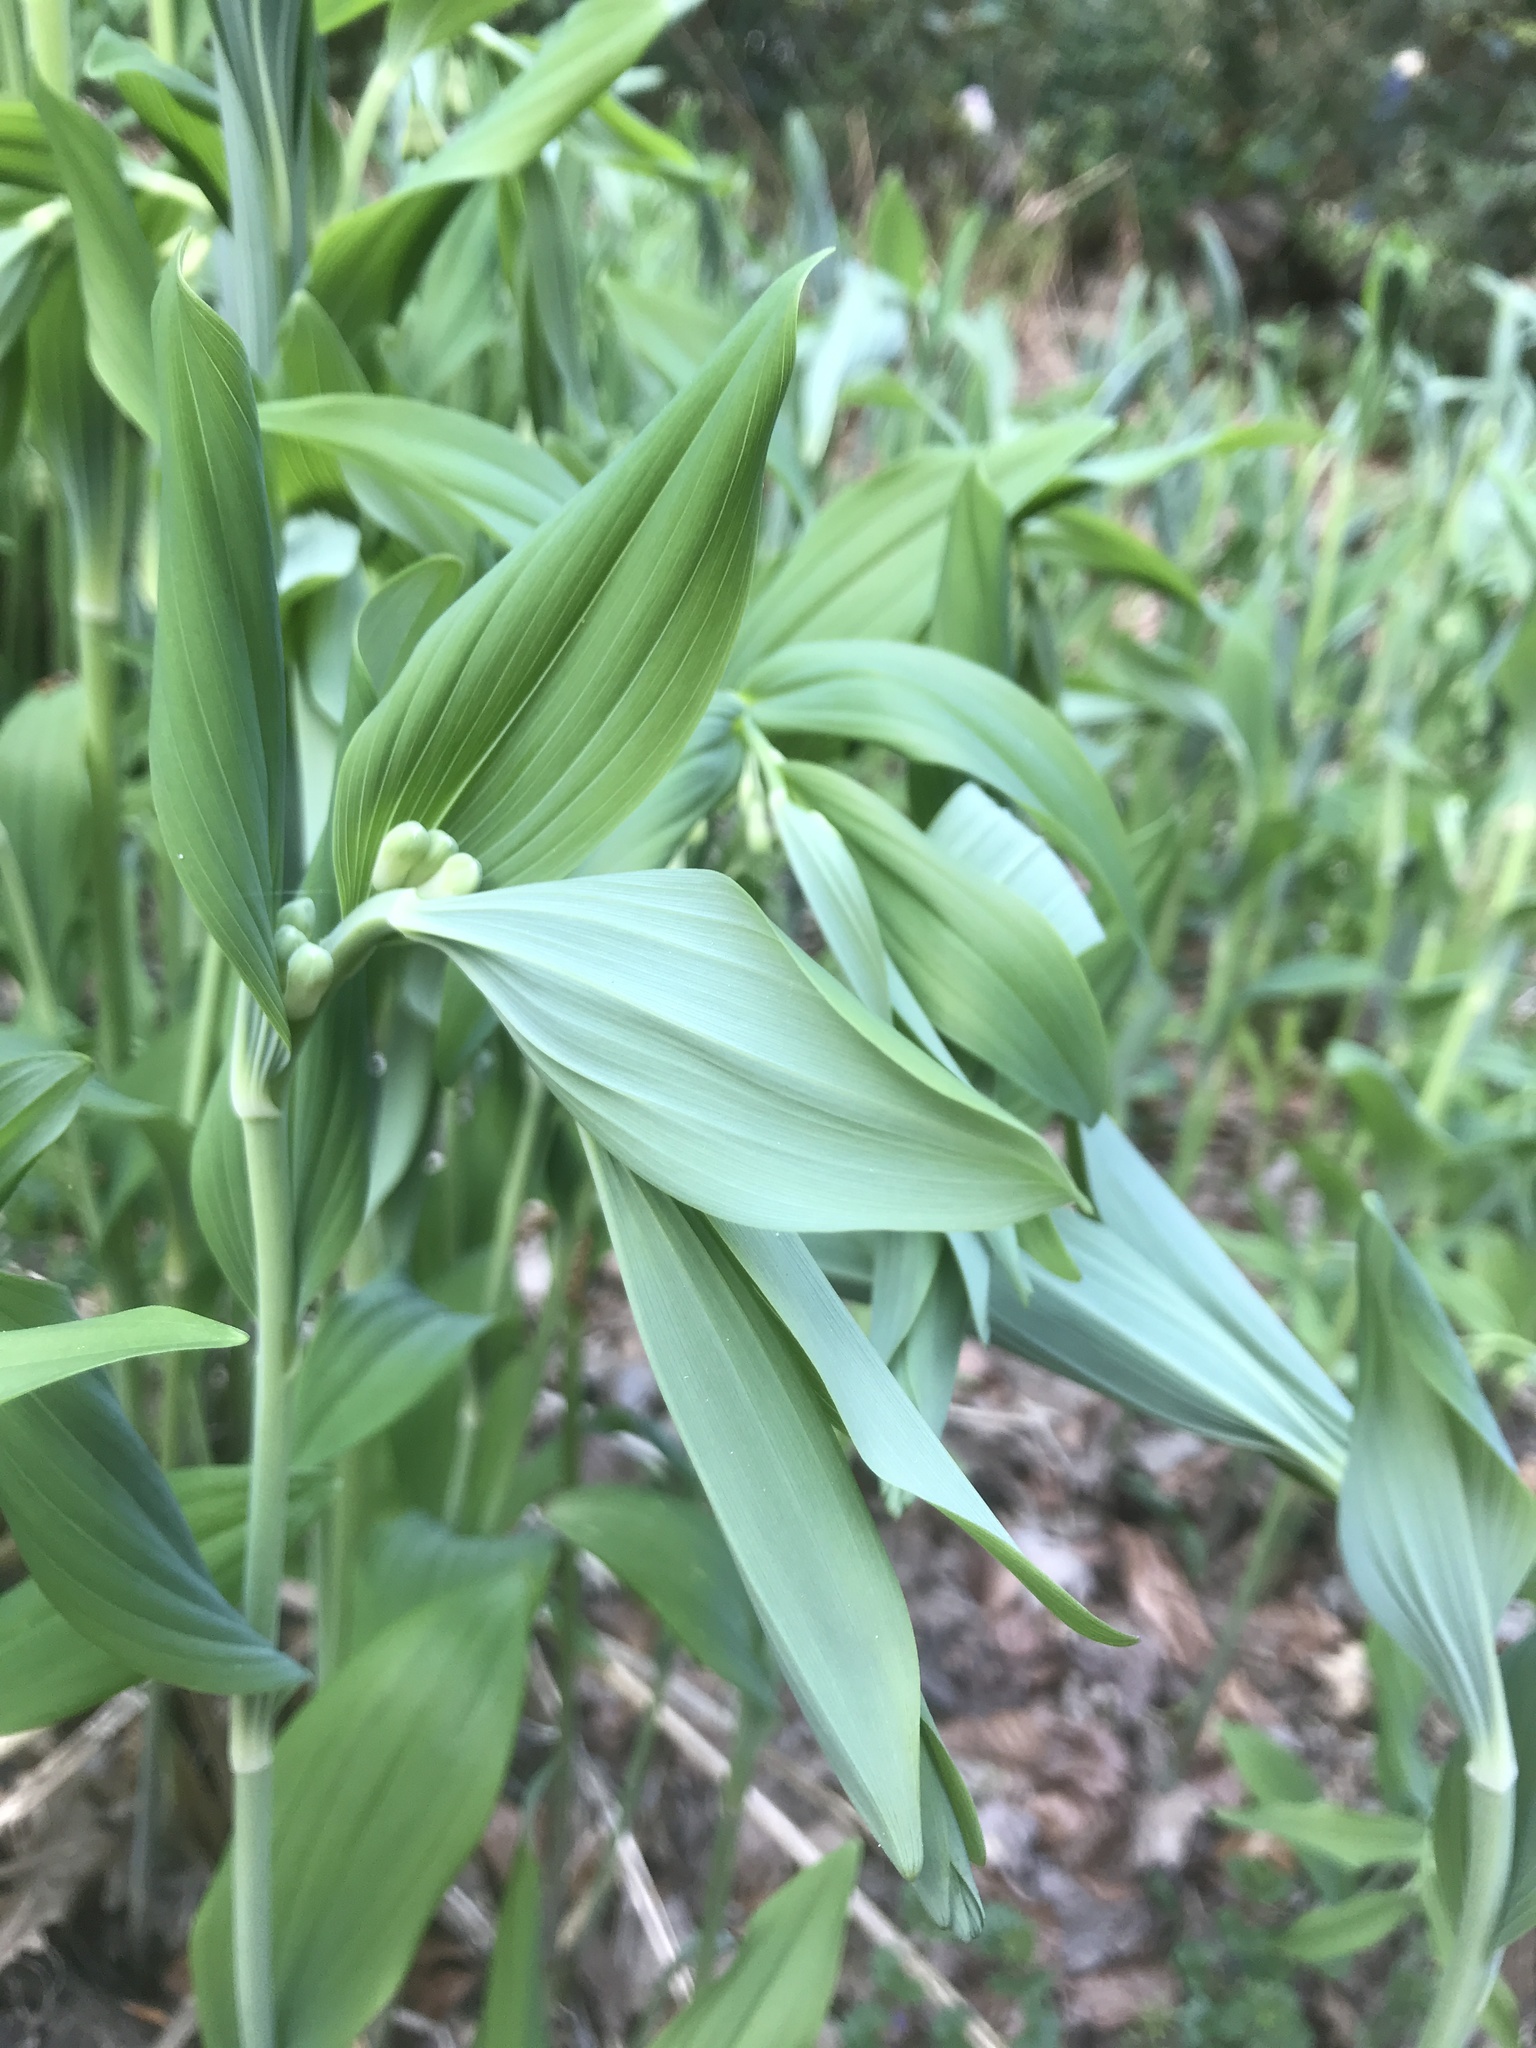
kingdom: Plantae
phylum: Tracheophyta
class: Liliopsida
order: Asparagales
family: Asparagaceae
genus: Polygonatum
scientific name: Polygonatum multiflorum
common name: Solomon's-seal
